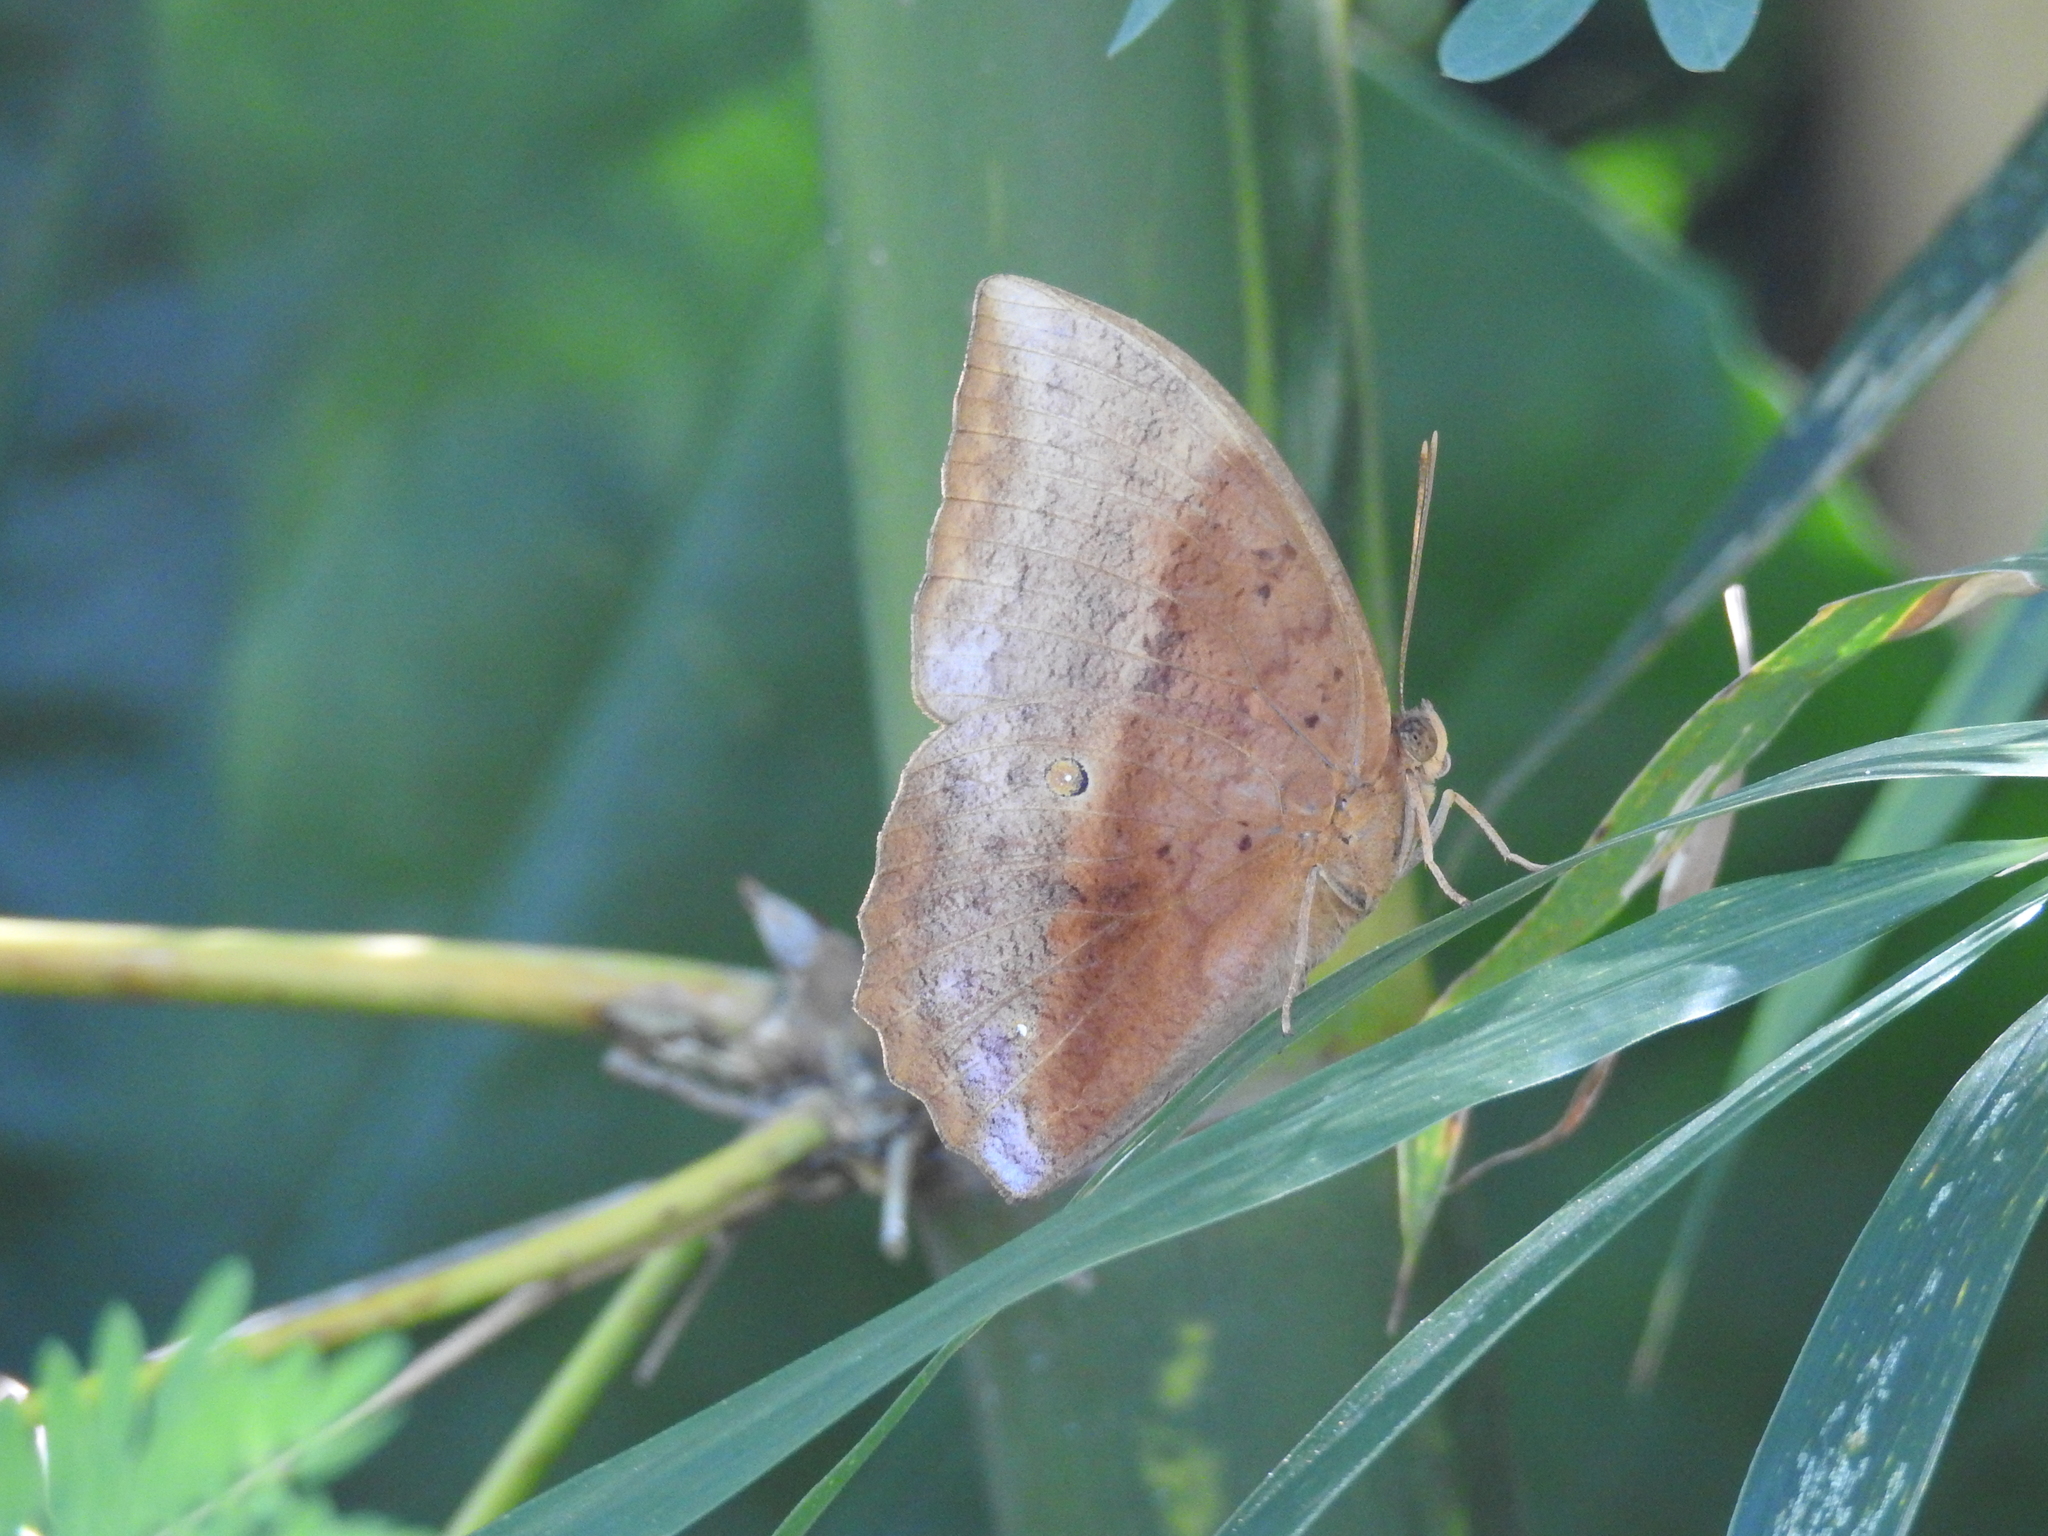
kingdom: Animalia
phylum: Arthropoda
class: Insecta
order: Lepidoptera
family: Nymphalidae
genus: Discophora
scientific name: Discophora sondaica
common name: Common duffer
